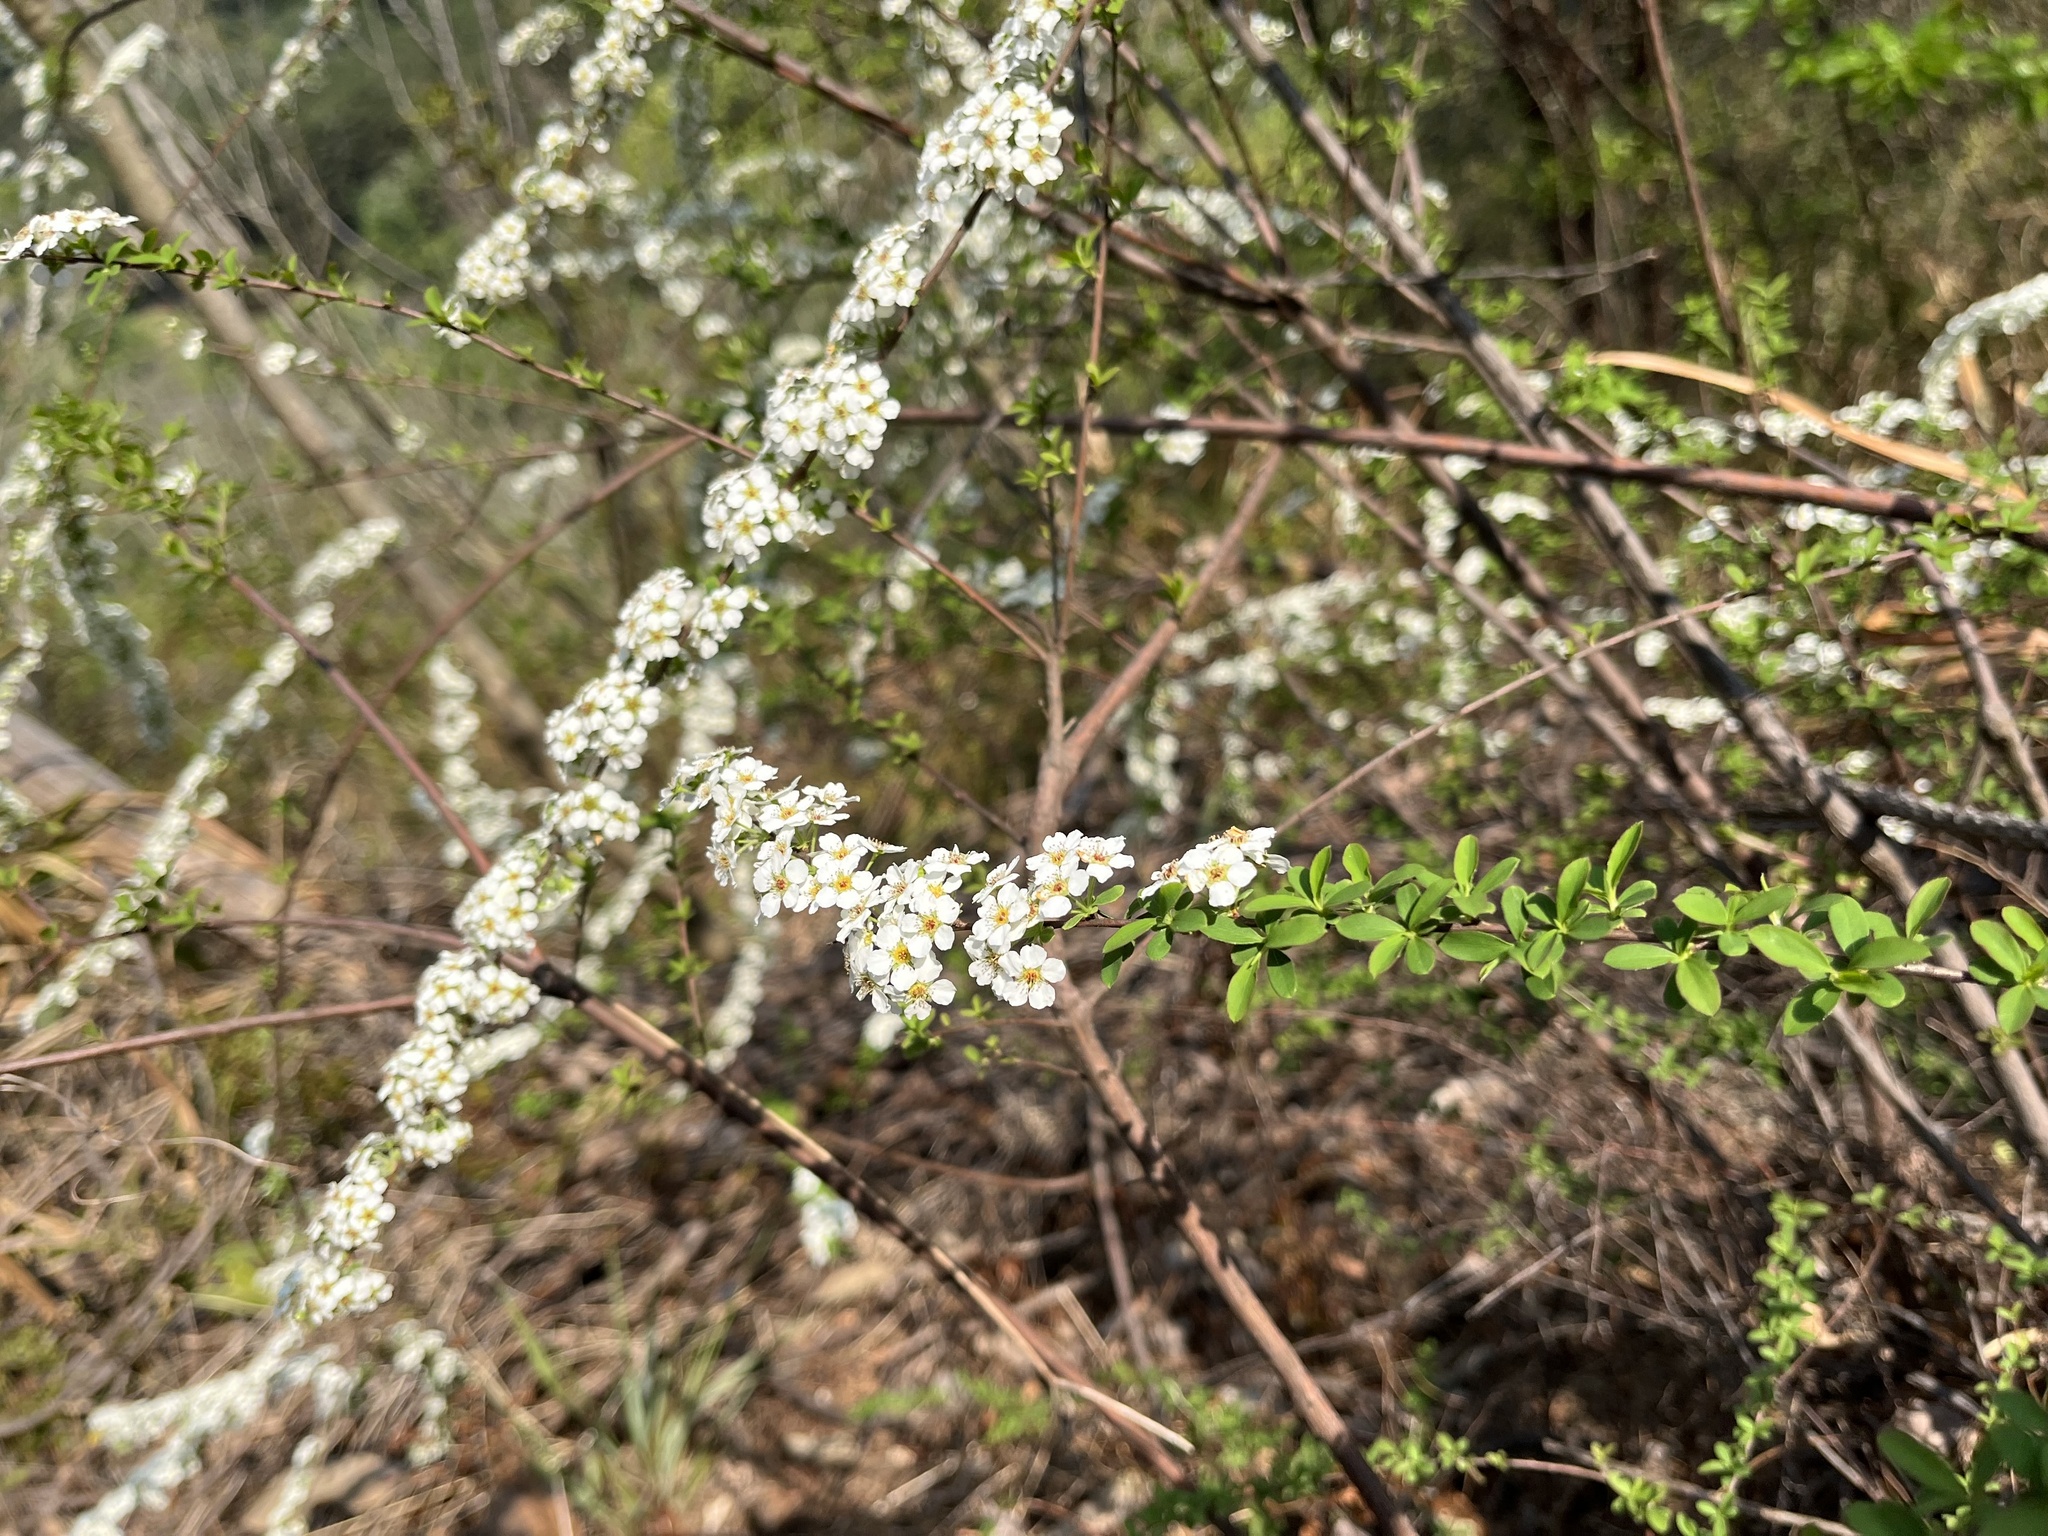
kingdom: Plantae
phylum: Tracheophyta
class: Magnoliopsida
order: Rosales
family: Rosaceae
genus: Spiraea
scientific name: Spiraea prunifolia
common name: Bridal-wreath spiraea
